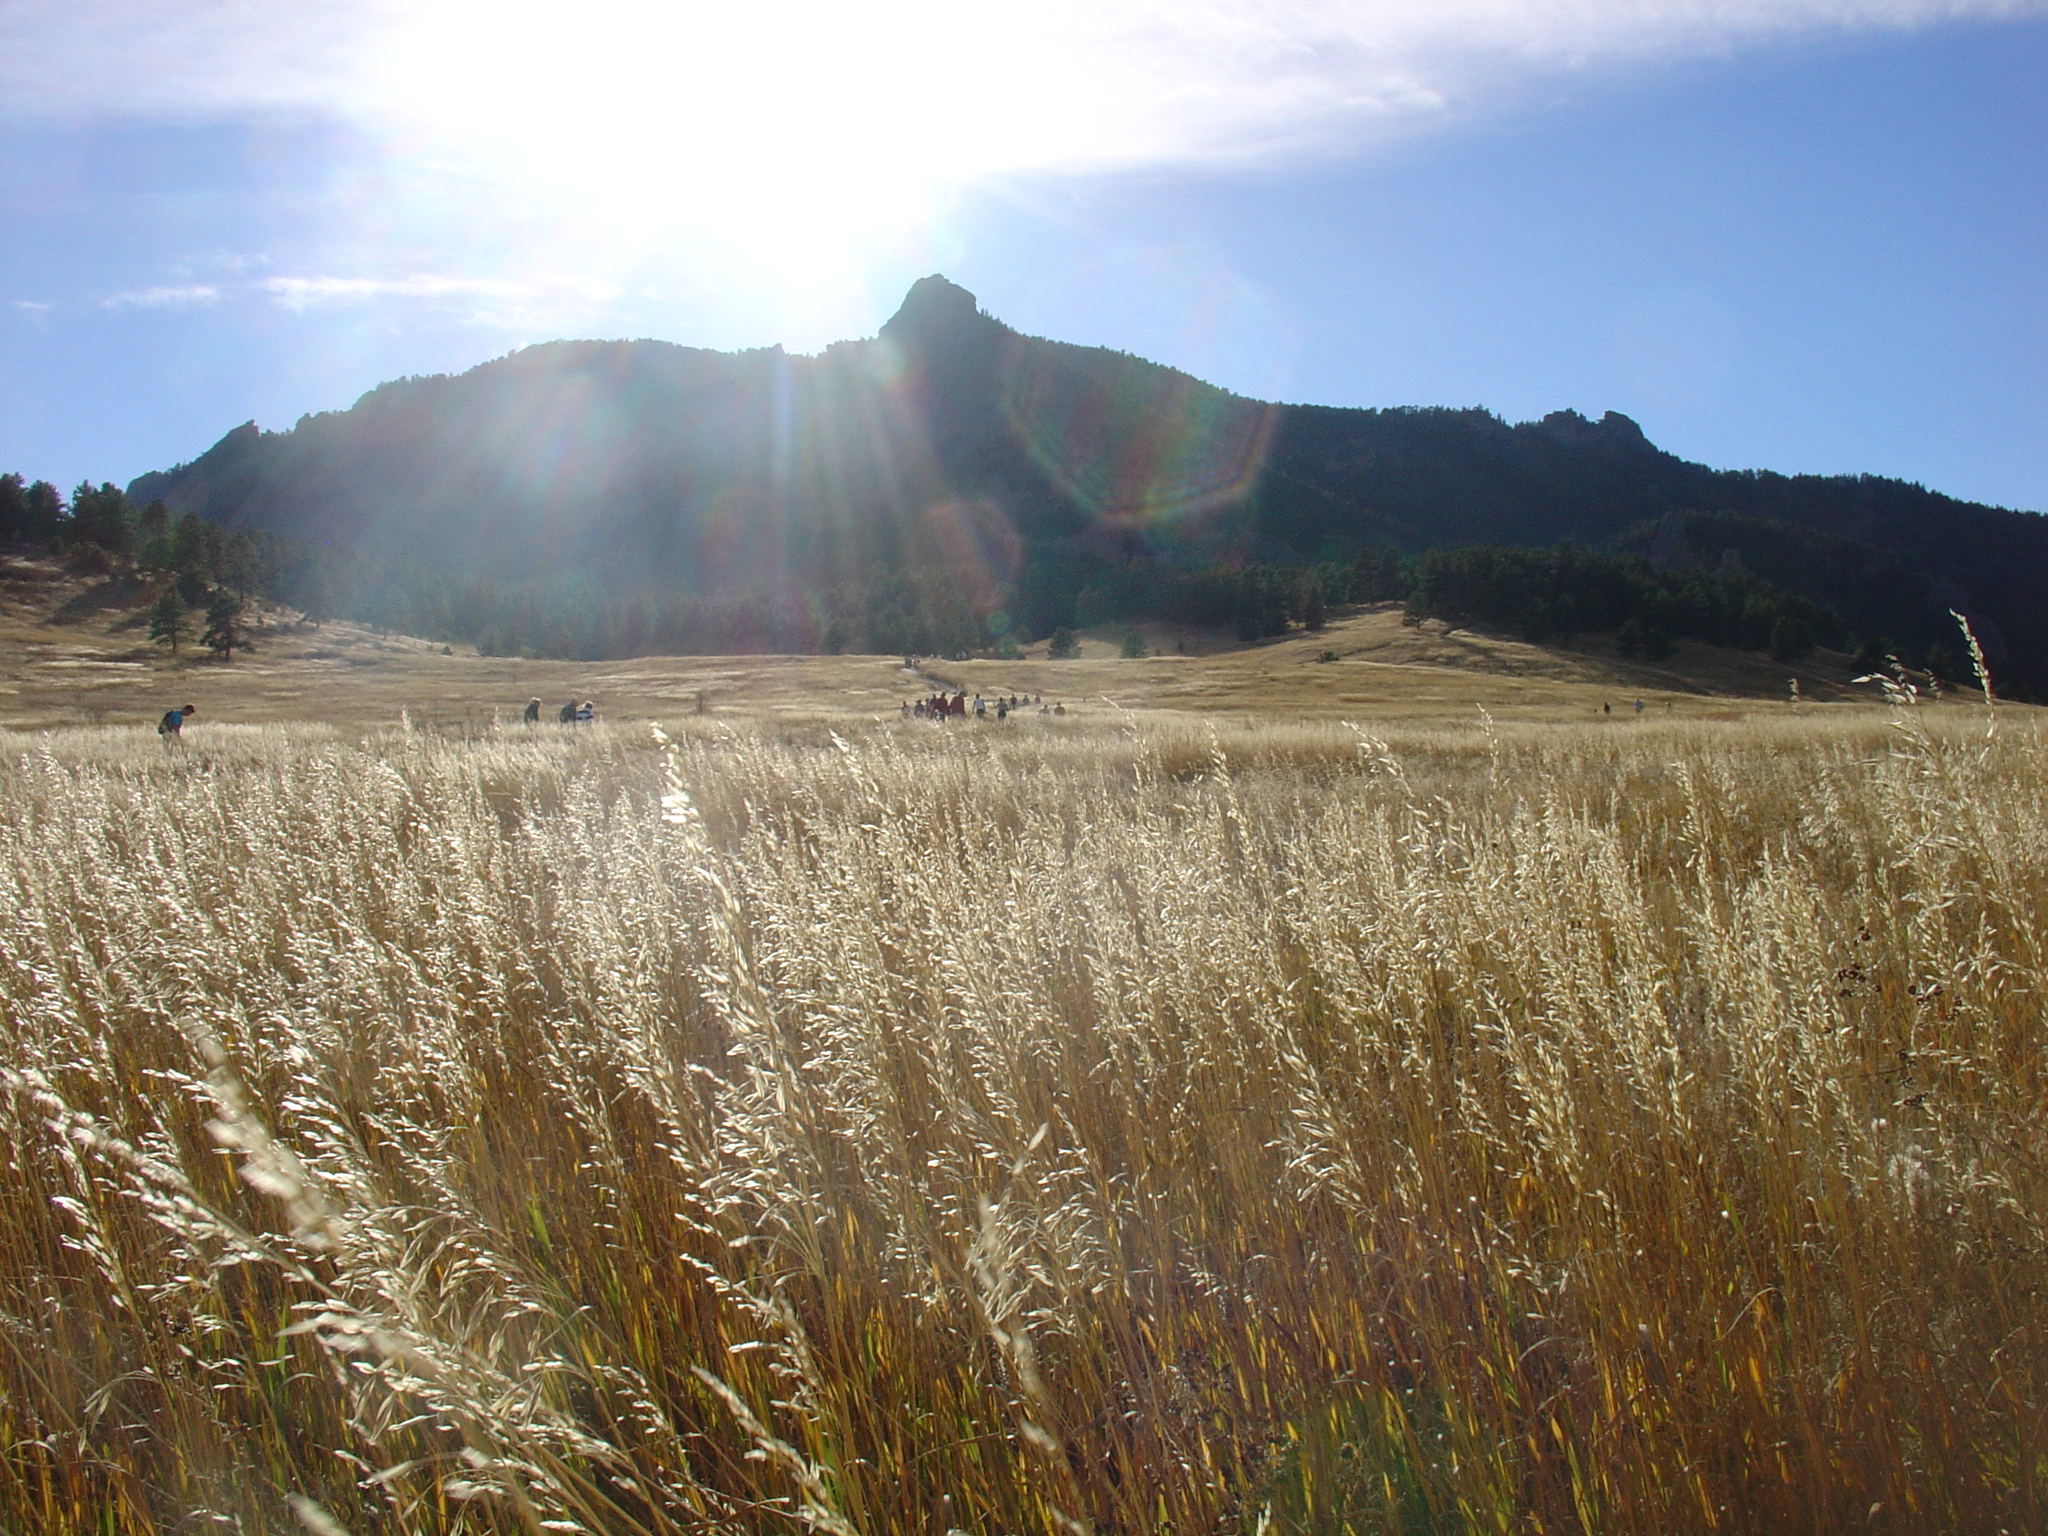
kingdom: Plantae
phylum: Tracheophyta
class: Liliopsida
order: Poales
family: Poaceae
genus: Bromus
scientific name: Bromus inermis
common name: Smooth brome
